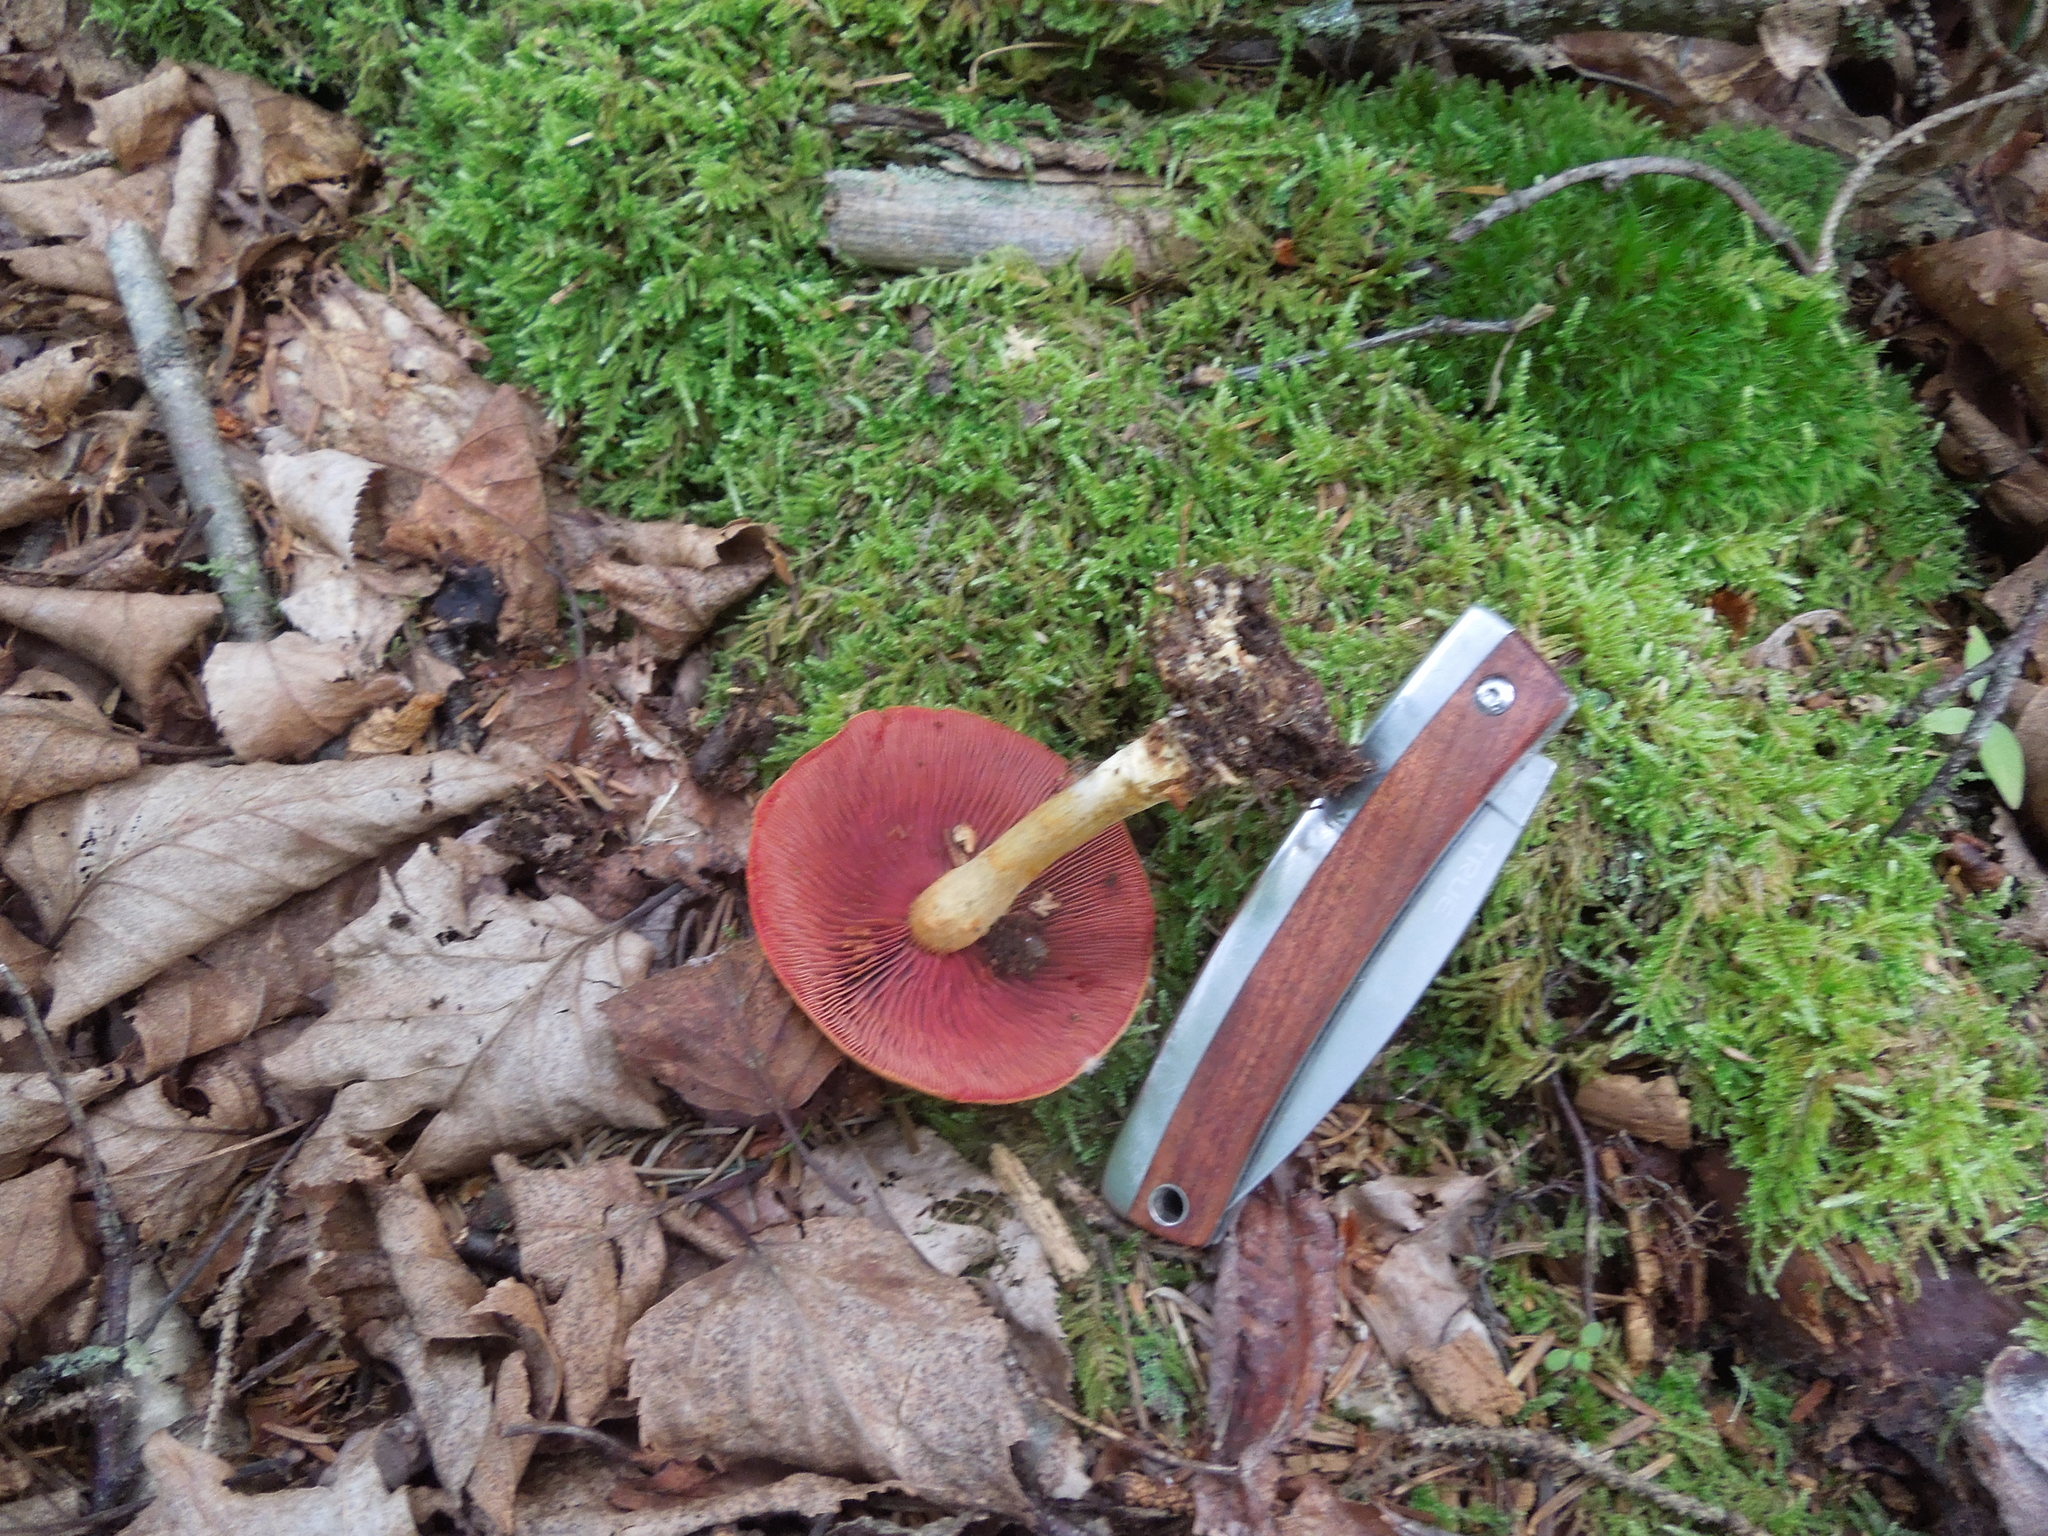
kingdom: Fungi
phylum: Basidiomycota
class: Agaricomycetes
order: Agaricales
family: Cortinariaceae
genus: Cortinarius
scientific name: Cortinarius semisanguineus
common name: Surprise webcap
